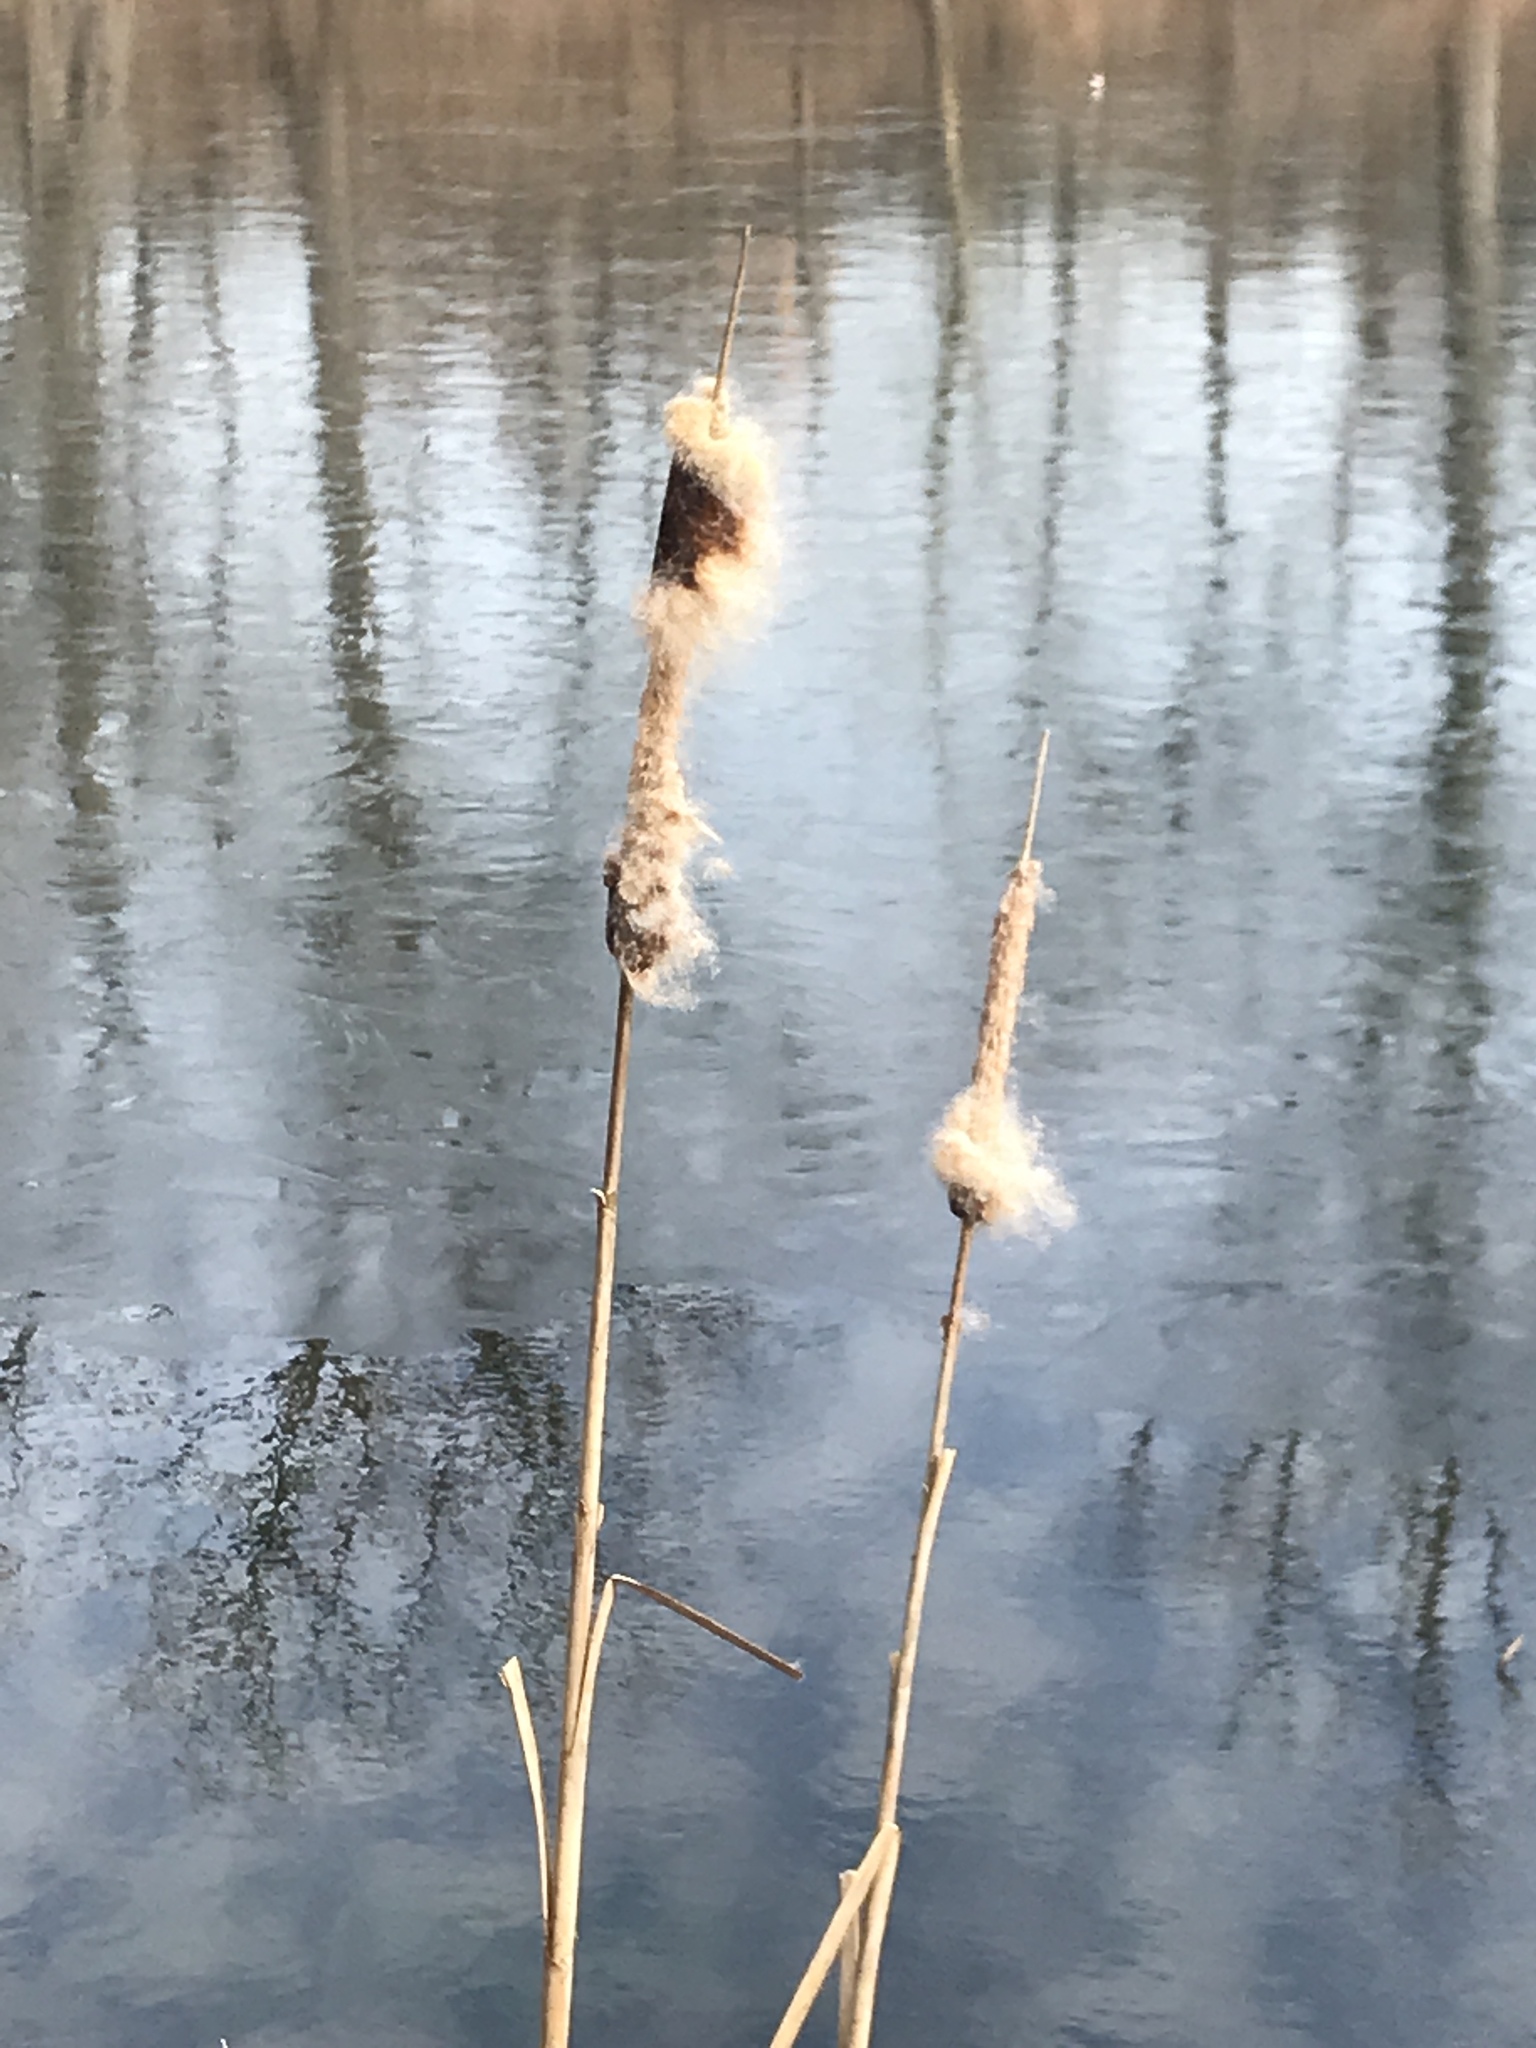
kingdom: Plantae
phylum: Tracheophyta
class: Liliopsida
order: Poales
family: Typhaceae
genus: Typha
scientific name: Typha
